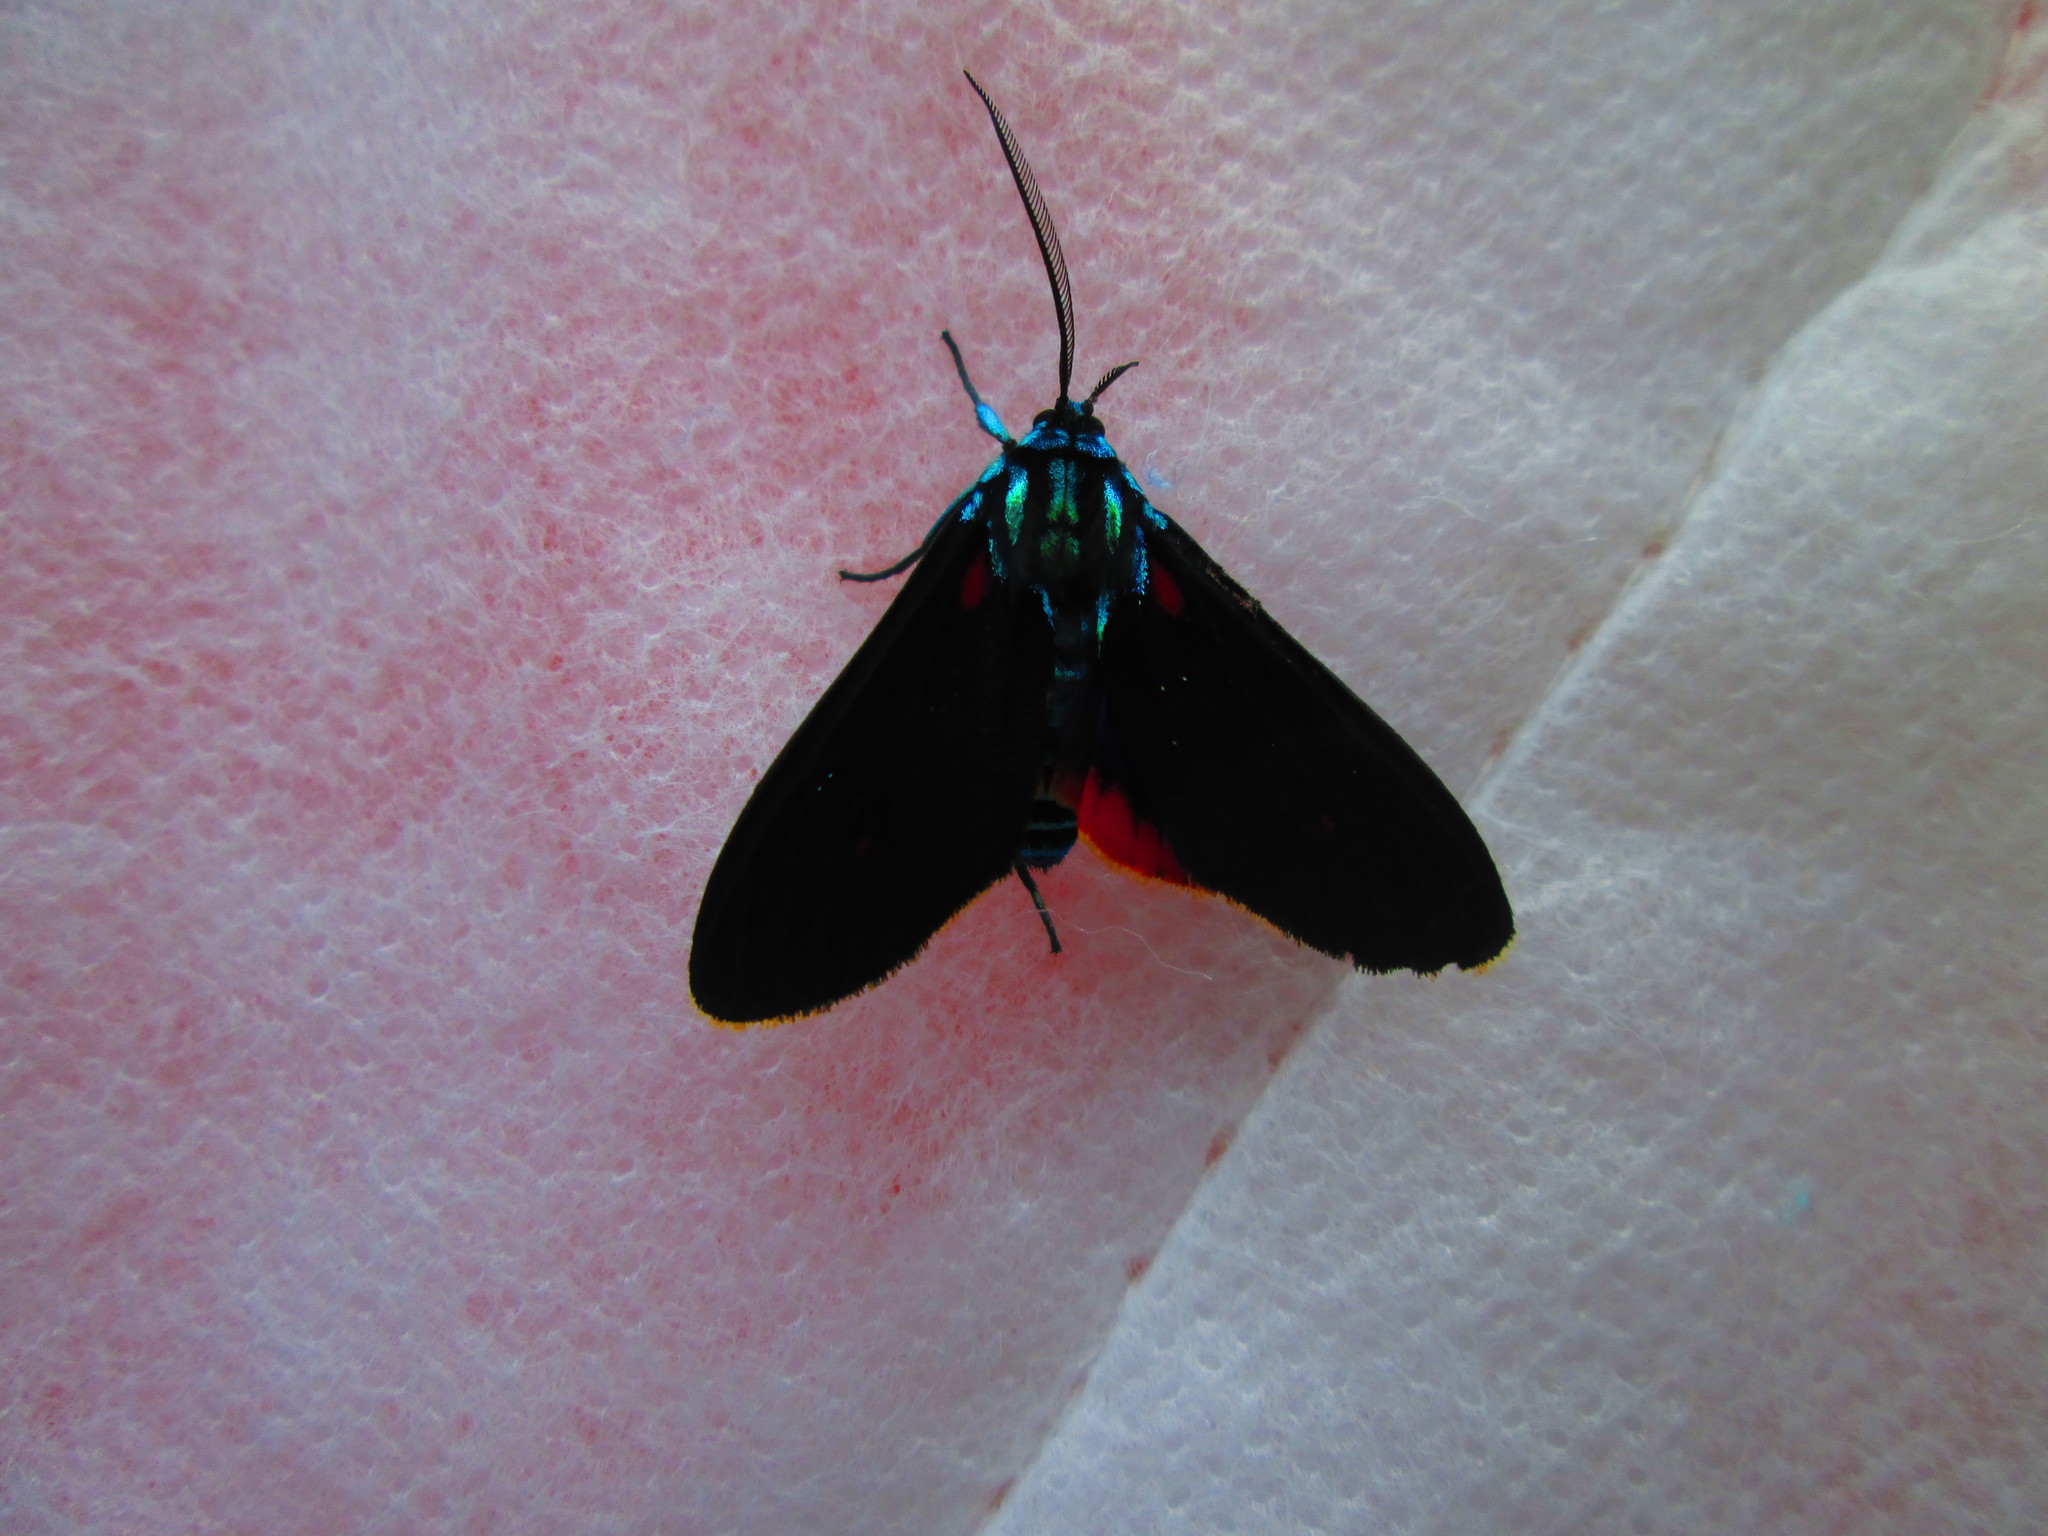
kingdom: Animalia
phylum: Arthropoda
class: Insecta
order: Lepidoptera
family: Erebidae
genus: Cyanopepla
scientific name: Cyanopepla cinctipennis
